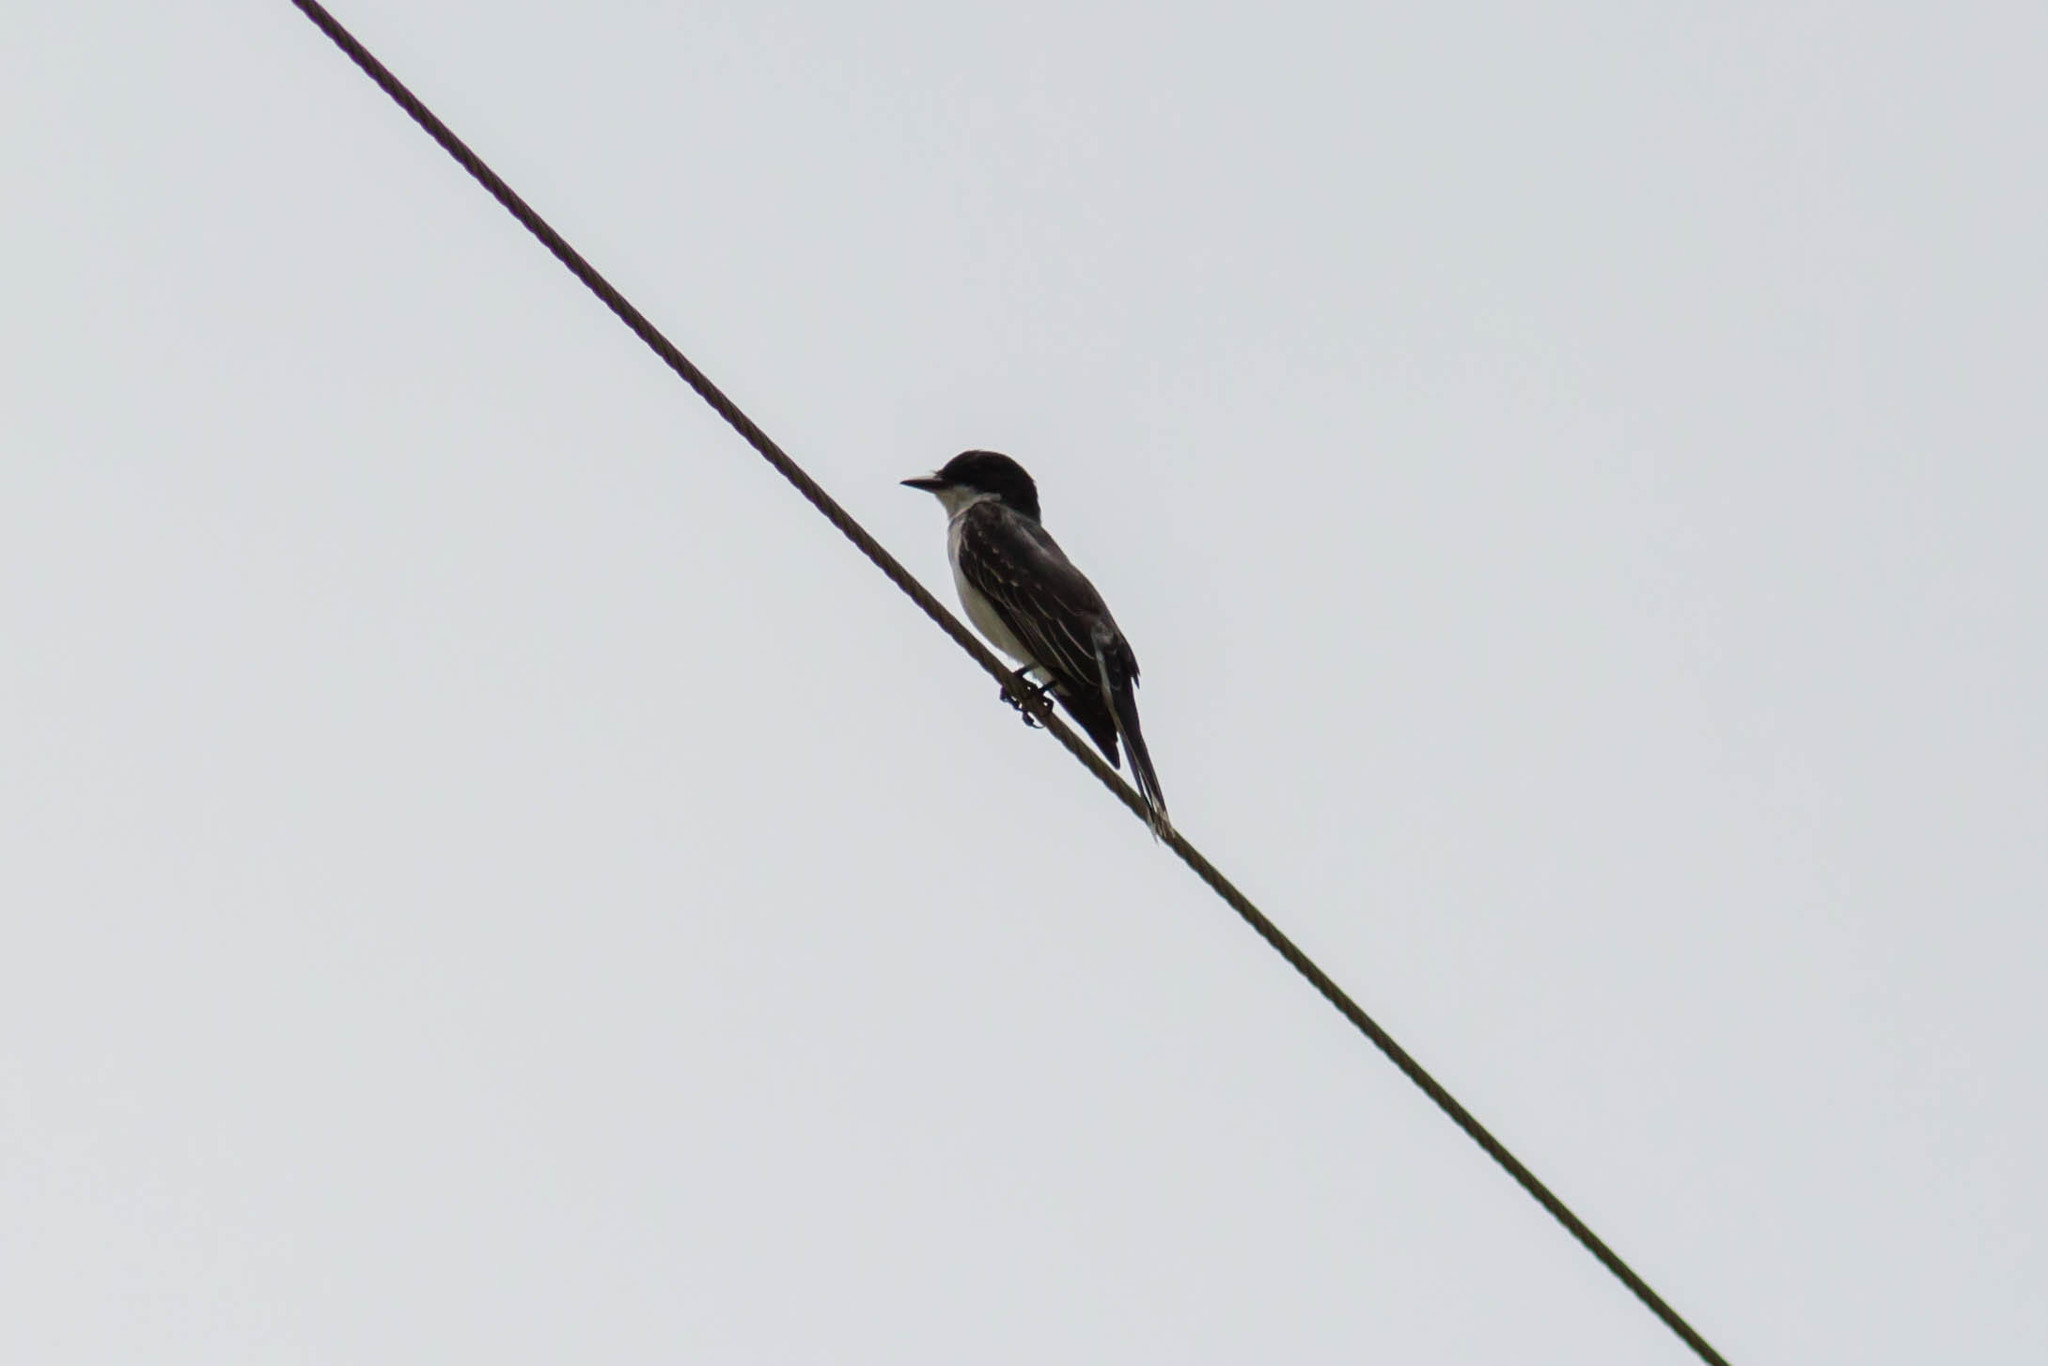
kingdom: Animalia
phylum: Chordata
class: Aves
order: Passeriformes
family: Tyrannidae
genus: Tyrannus
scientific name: Tyrannus tyrannus
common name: Eastern kingbird
